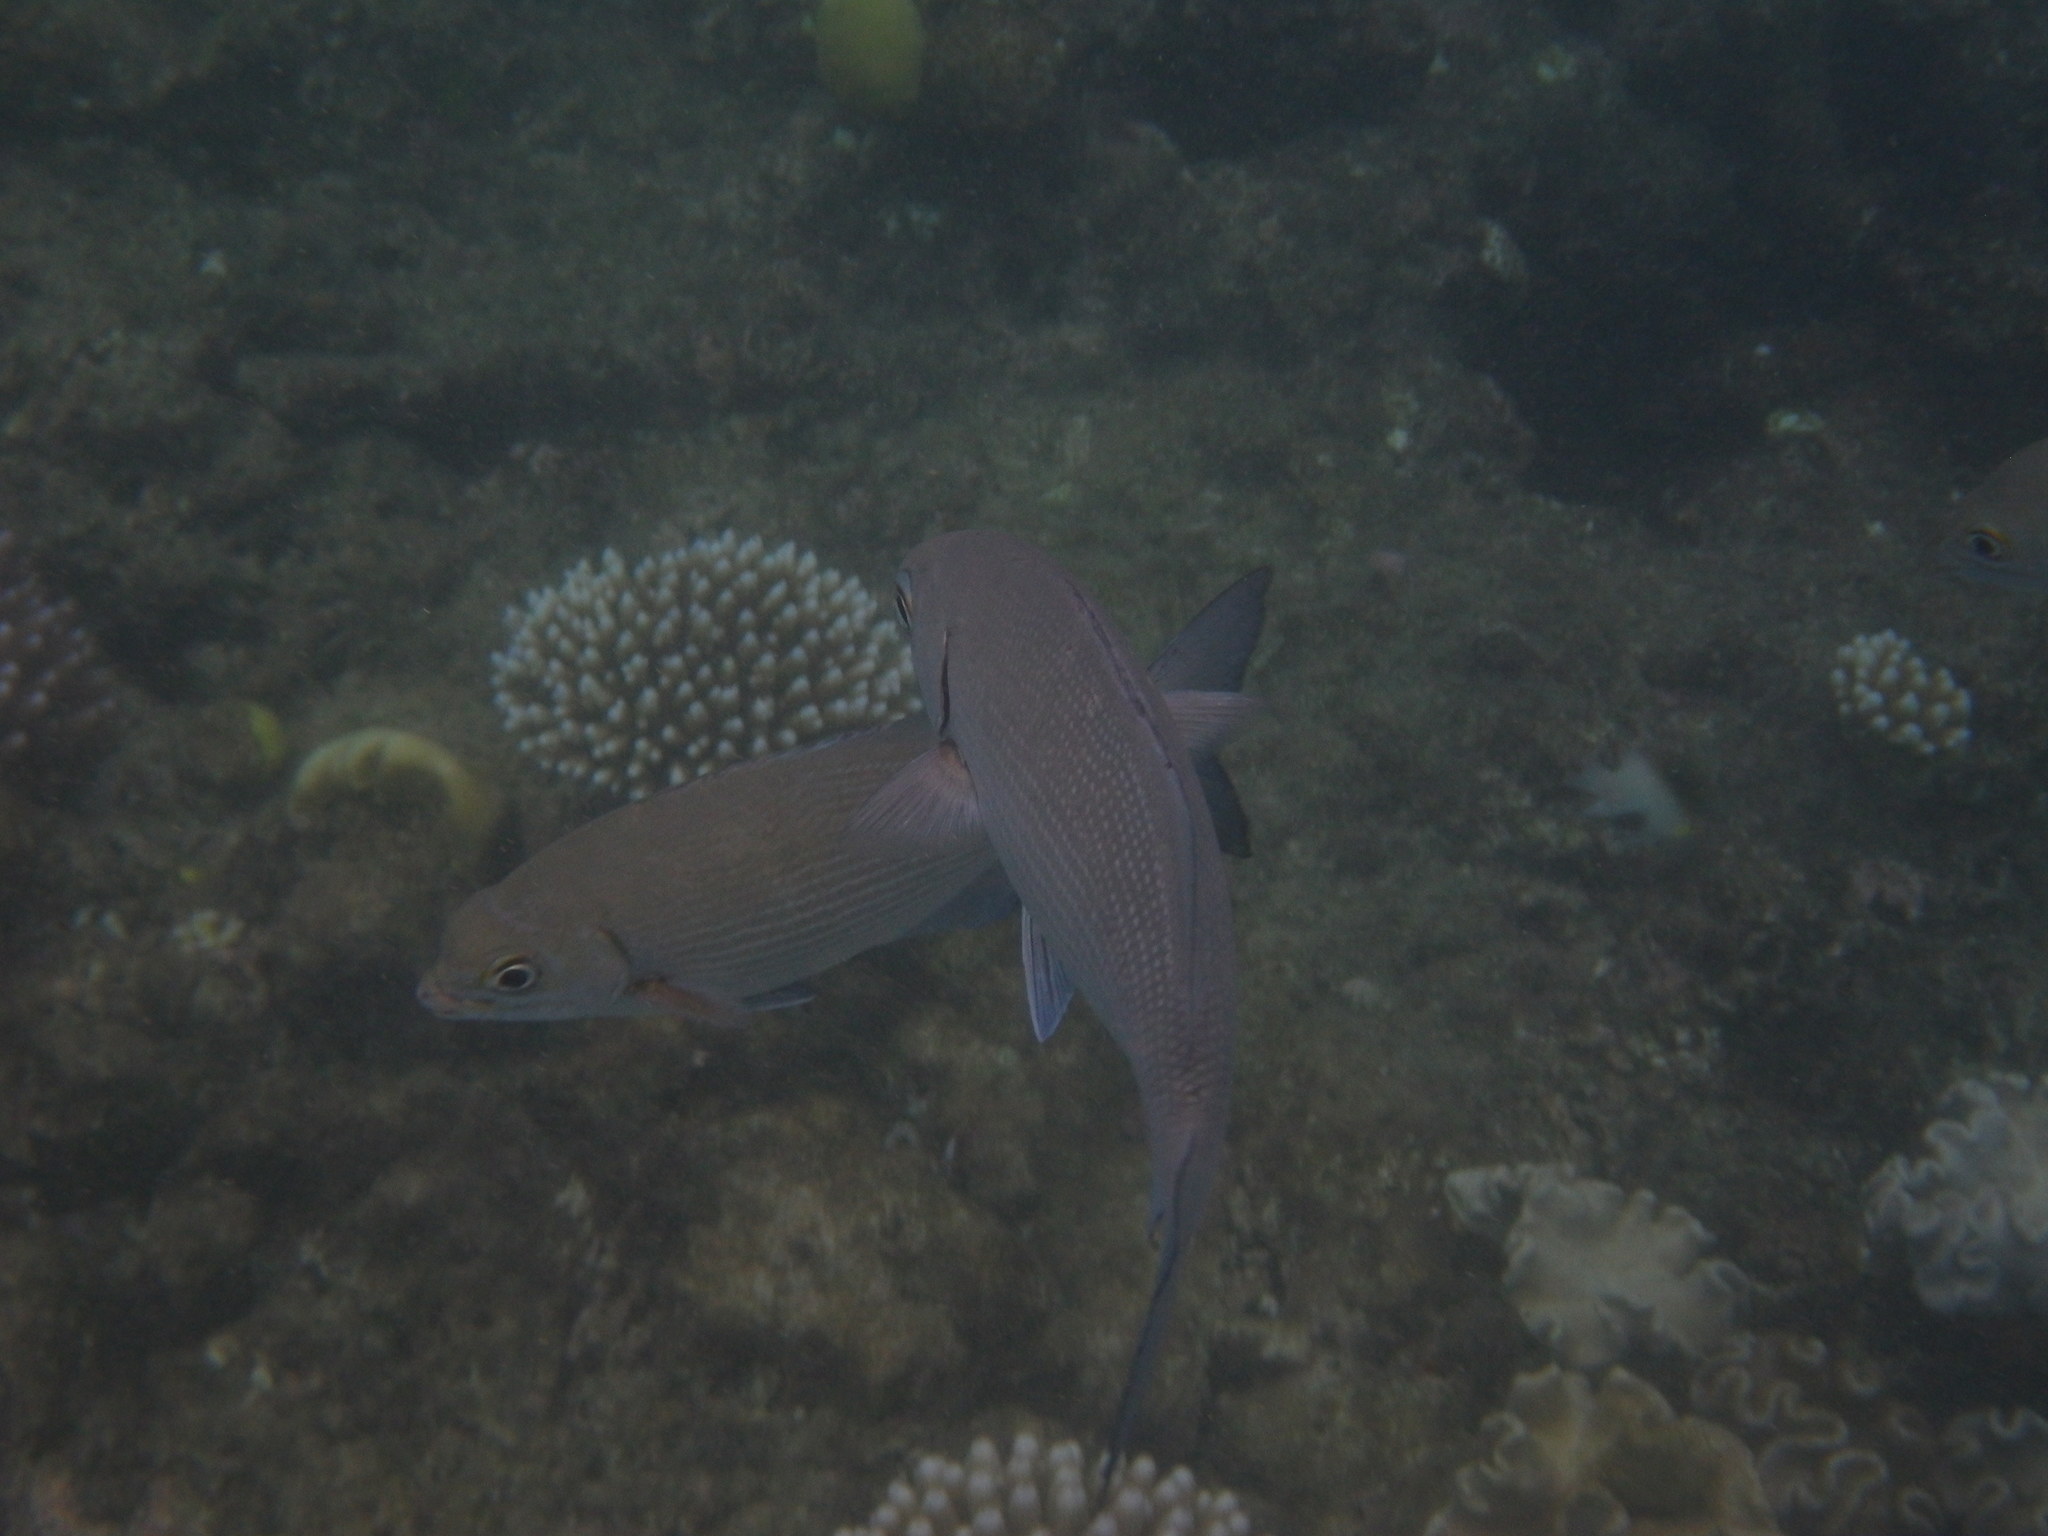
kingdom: Animalia
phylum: Chordata
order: Perciformes
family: Kyphosidae
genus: Kyphosus
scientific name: Kyphosus vaigiensis
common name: Brassy chub
